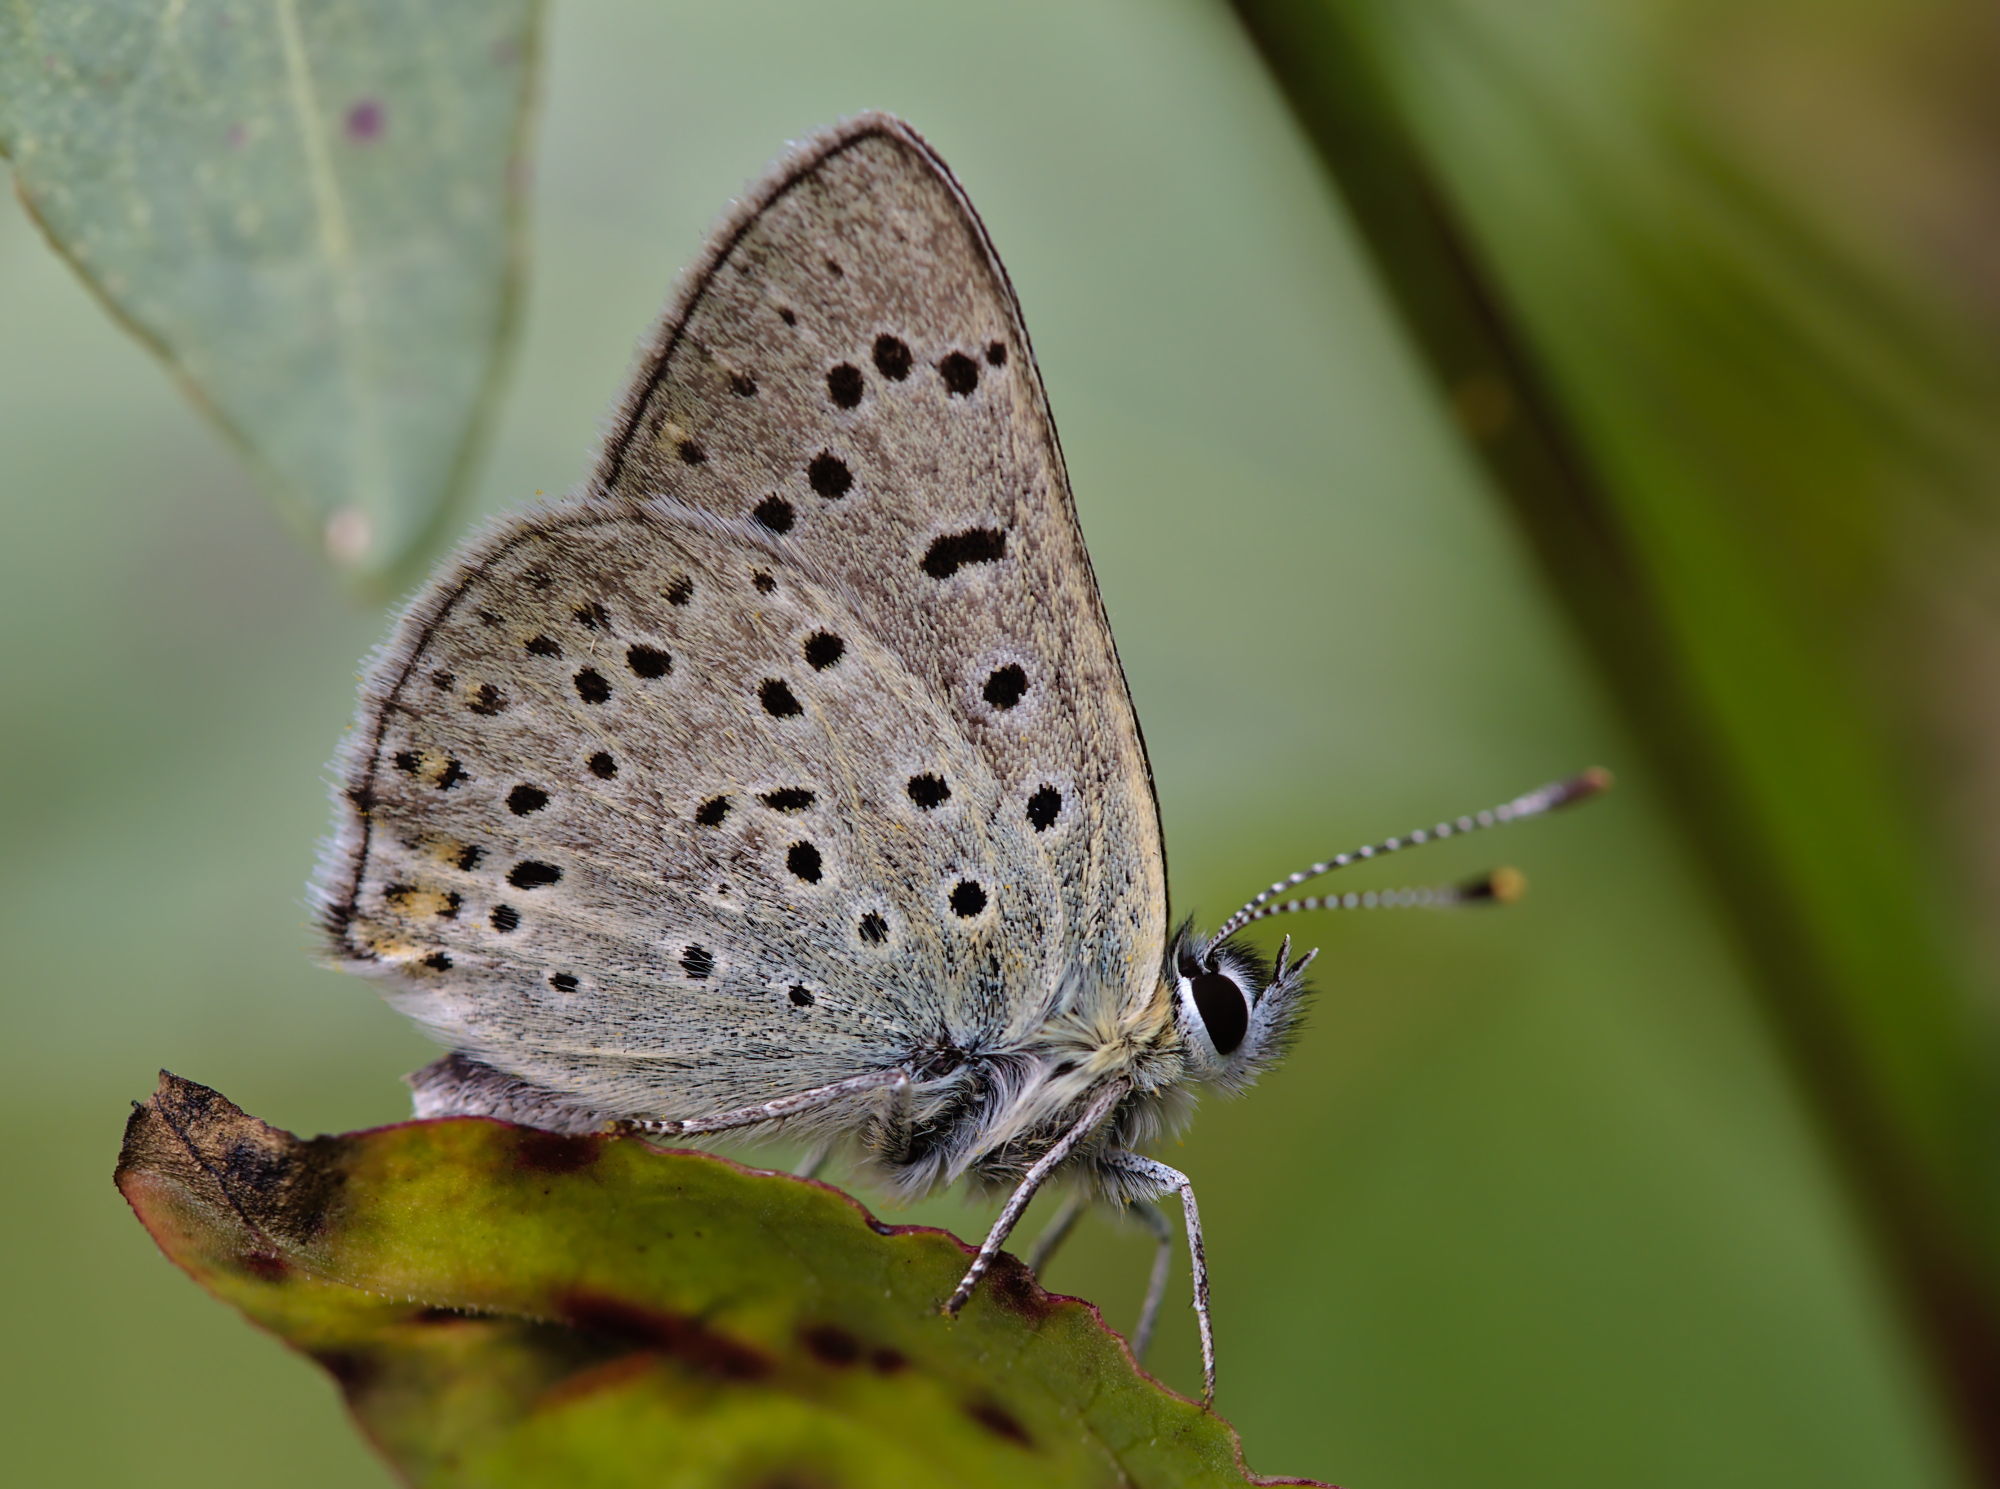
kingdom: Animalia
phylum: Arthropoda
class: Insecta
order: Lepidoptera
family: Lycaenidae
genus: Loweia
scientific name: Loweia tityrus
